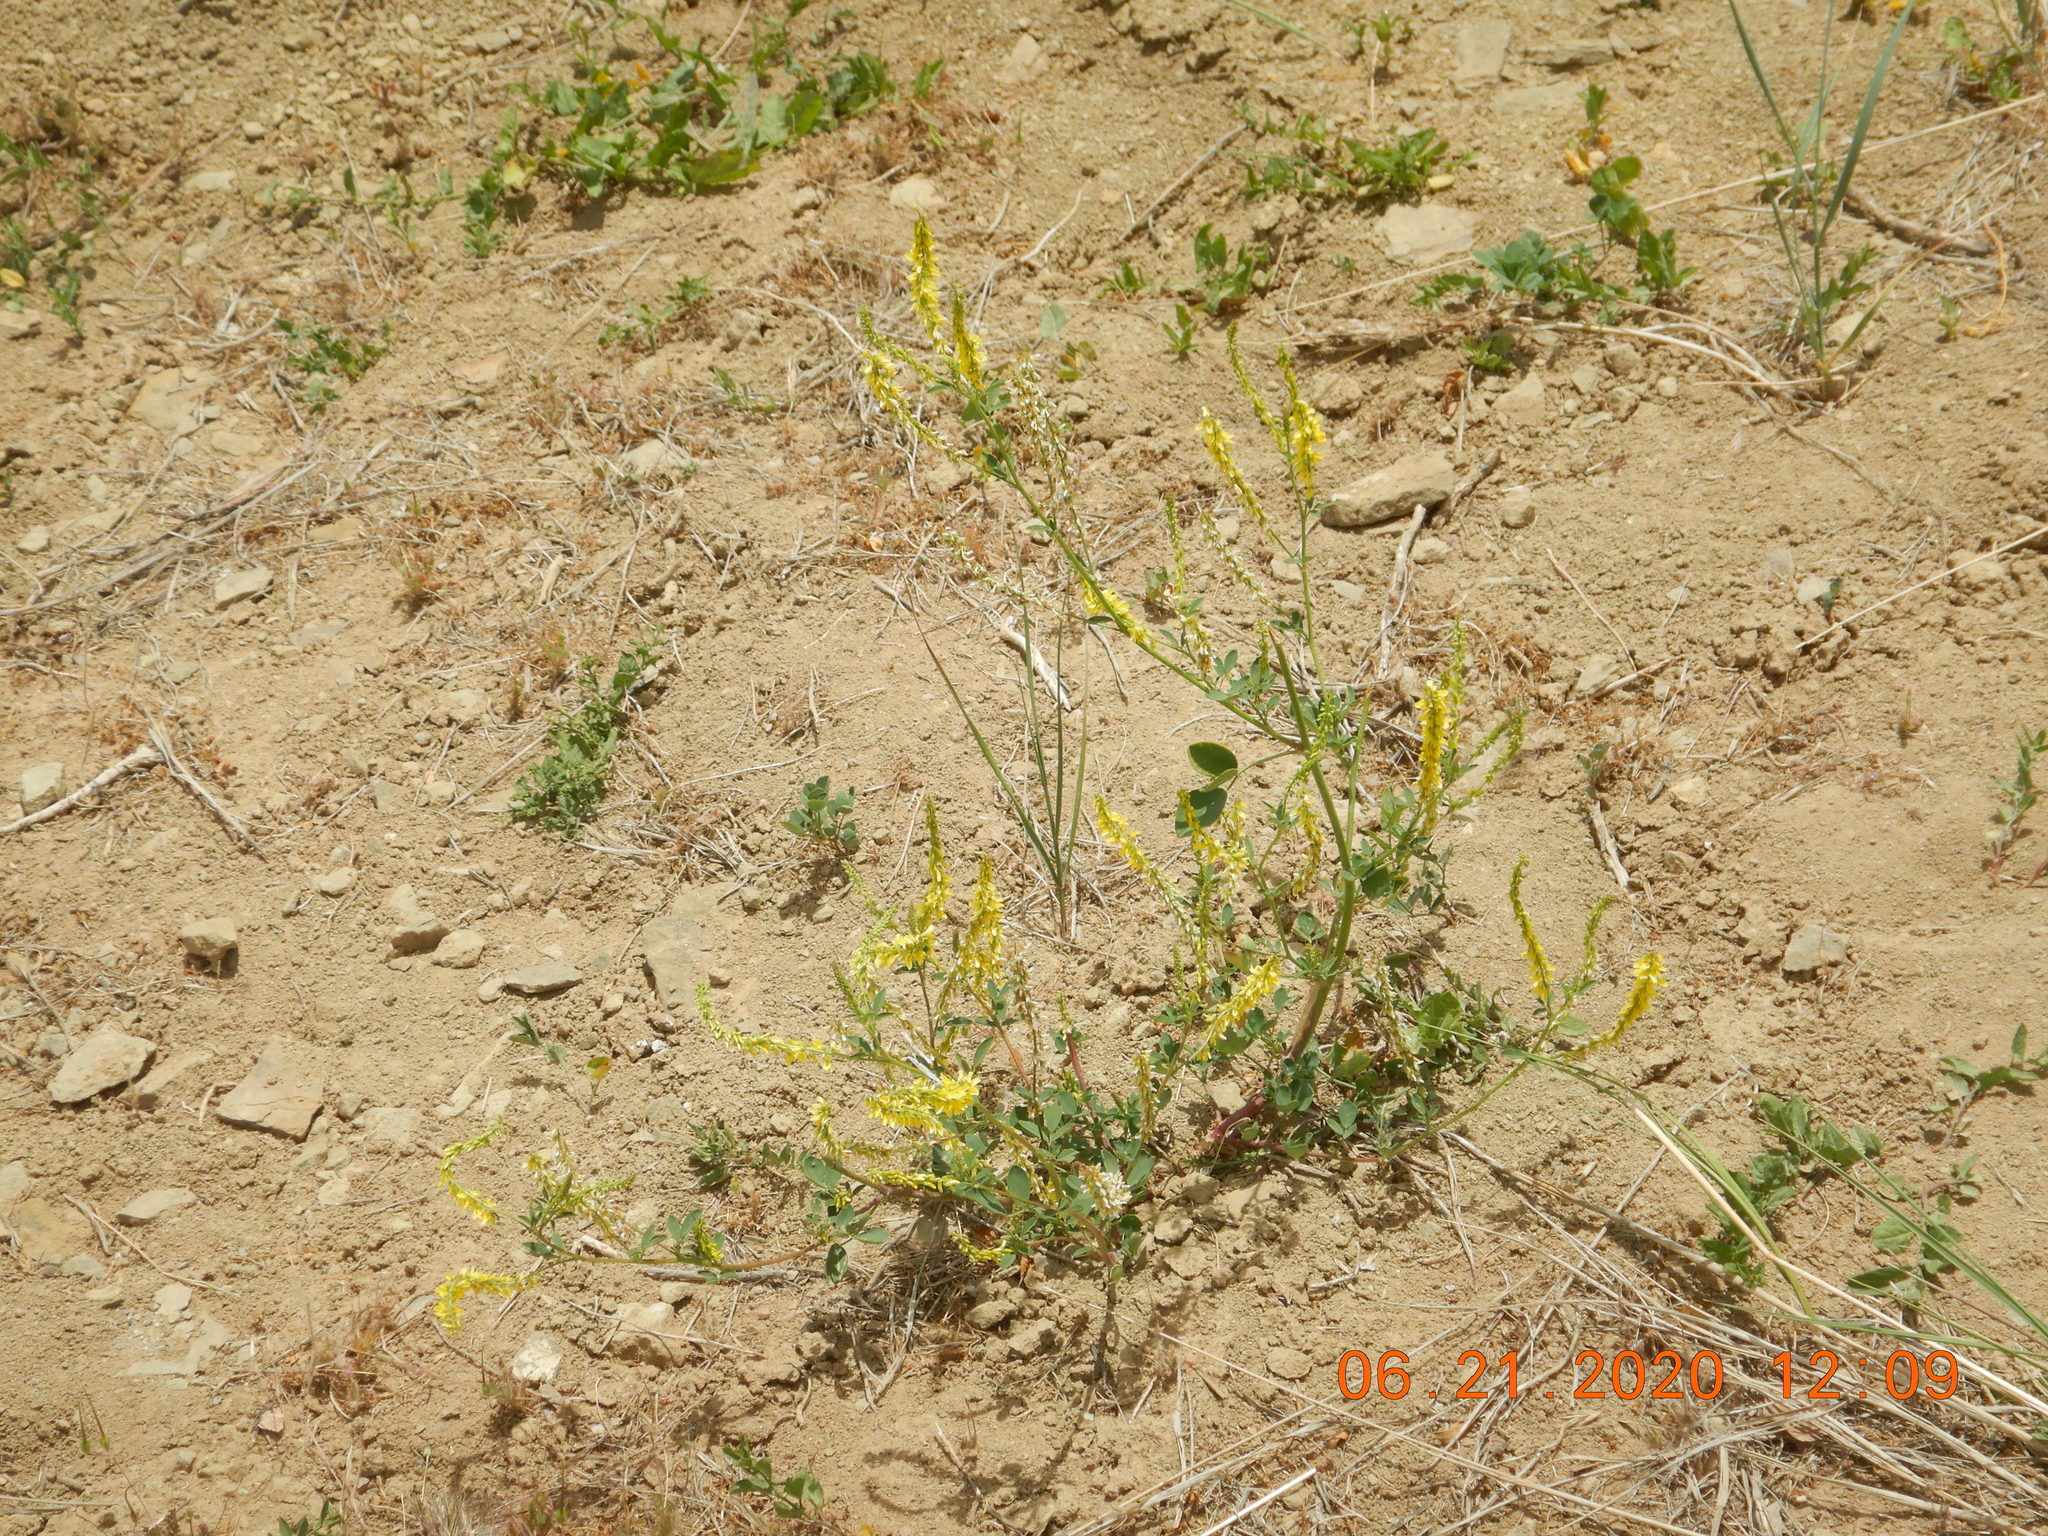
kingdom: Plantae
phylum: Tracheophyta
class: Magnoliopsida
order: Fabales
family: Fabaceae
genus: Melilotus
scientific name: Melilotus officinalis
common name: Sweetclover
